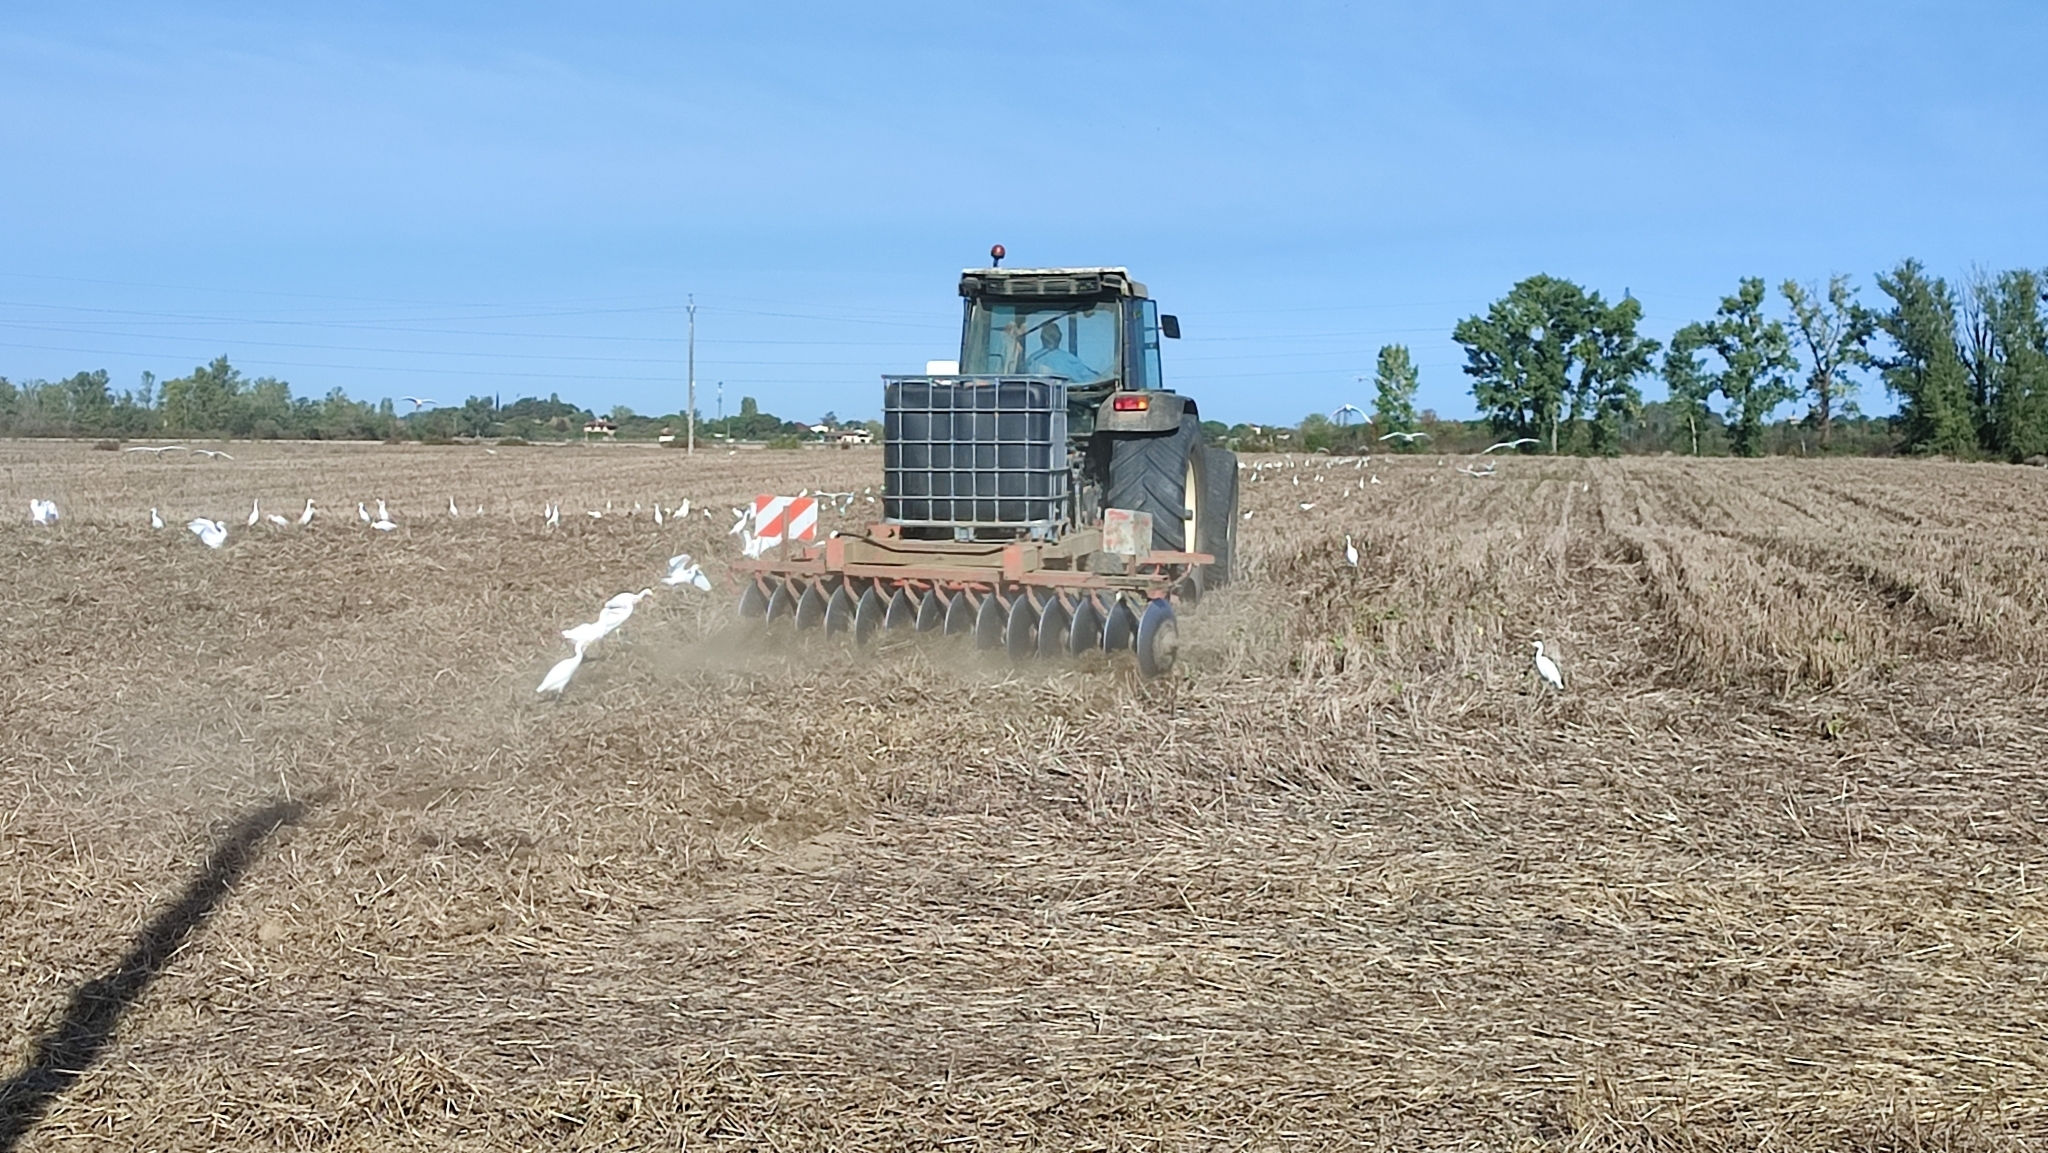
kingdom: Animalia
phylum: Chordata
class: Aves
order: Pelecaniformes
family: Ardeidae
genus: Bubulcus
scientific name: Bubulcus ibis
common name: Cattle egret
